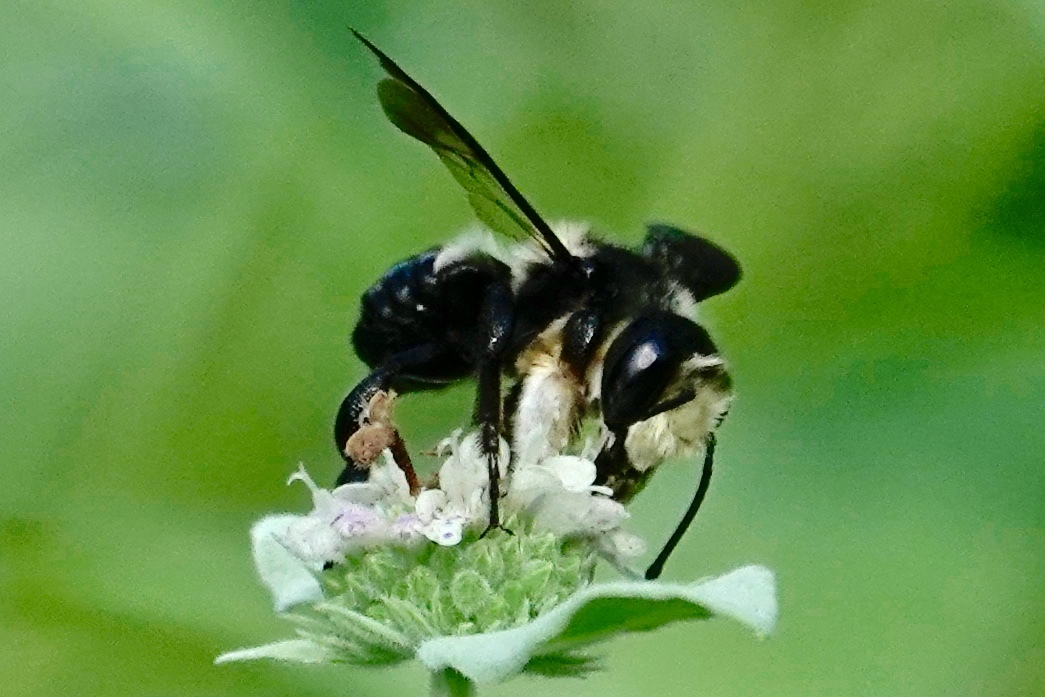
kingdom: Animalia
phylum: Arthropoda
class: Insecta
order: Hymenoptera
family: Megachilidae
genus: Megachile
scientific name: Megachile xylocopoides
